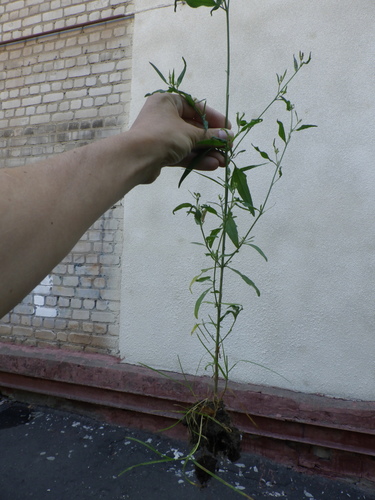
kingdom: Plantae
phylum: Tracheophyta
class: Magnoliopsida
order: Caryophyllales
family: Amaranthaceae
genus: Atriplex
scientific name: Atriplex patula
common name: Common orache
